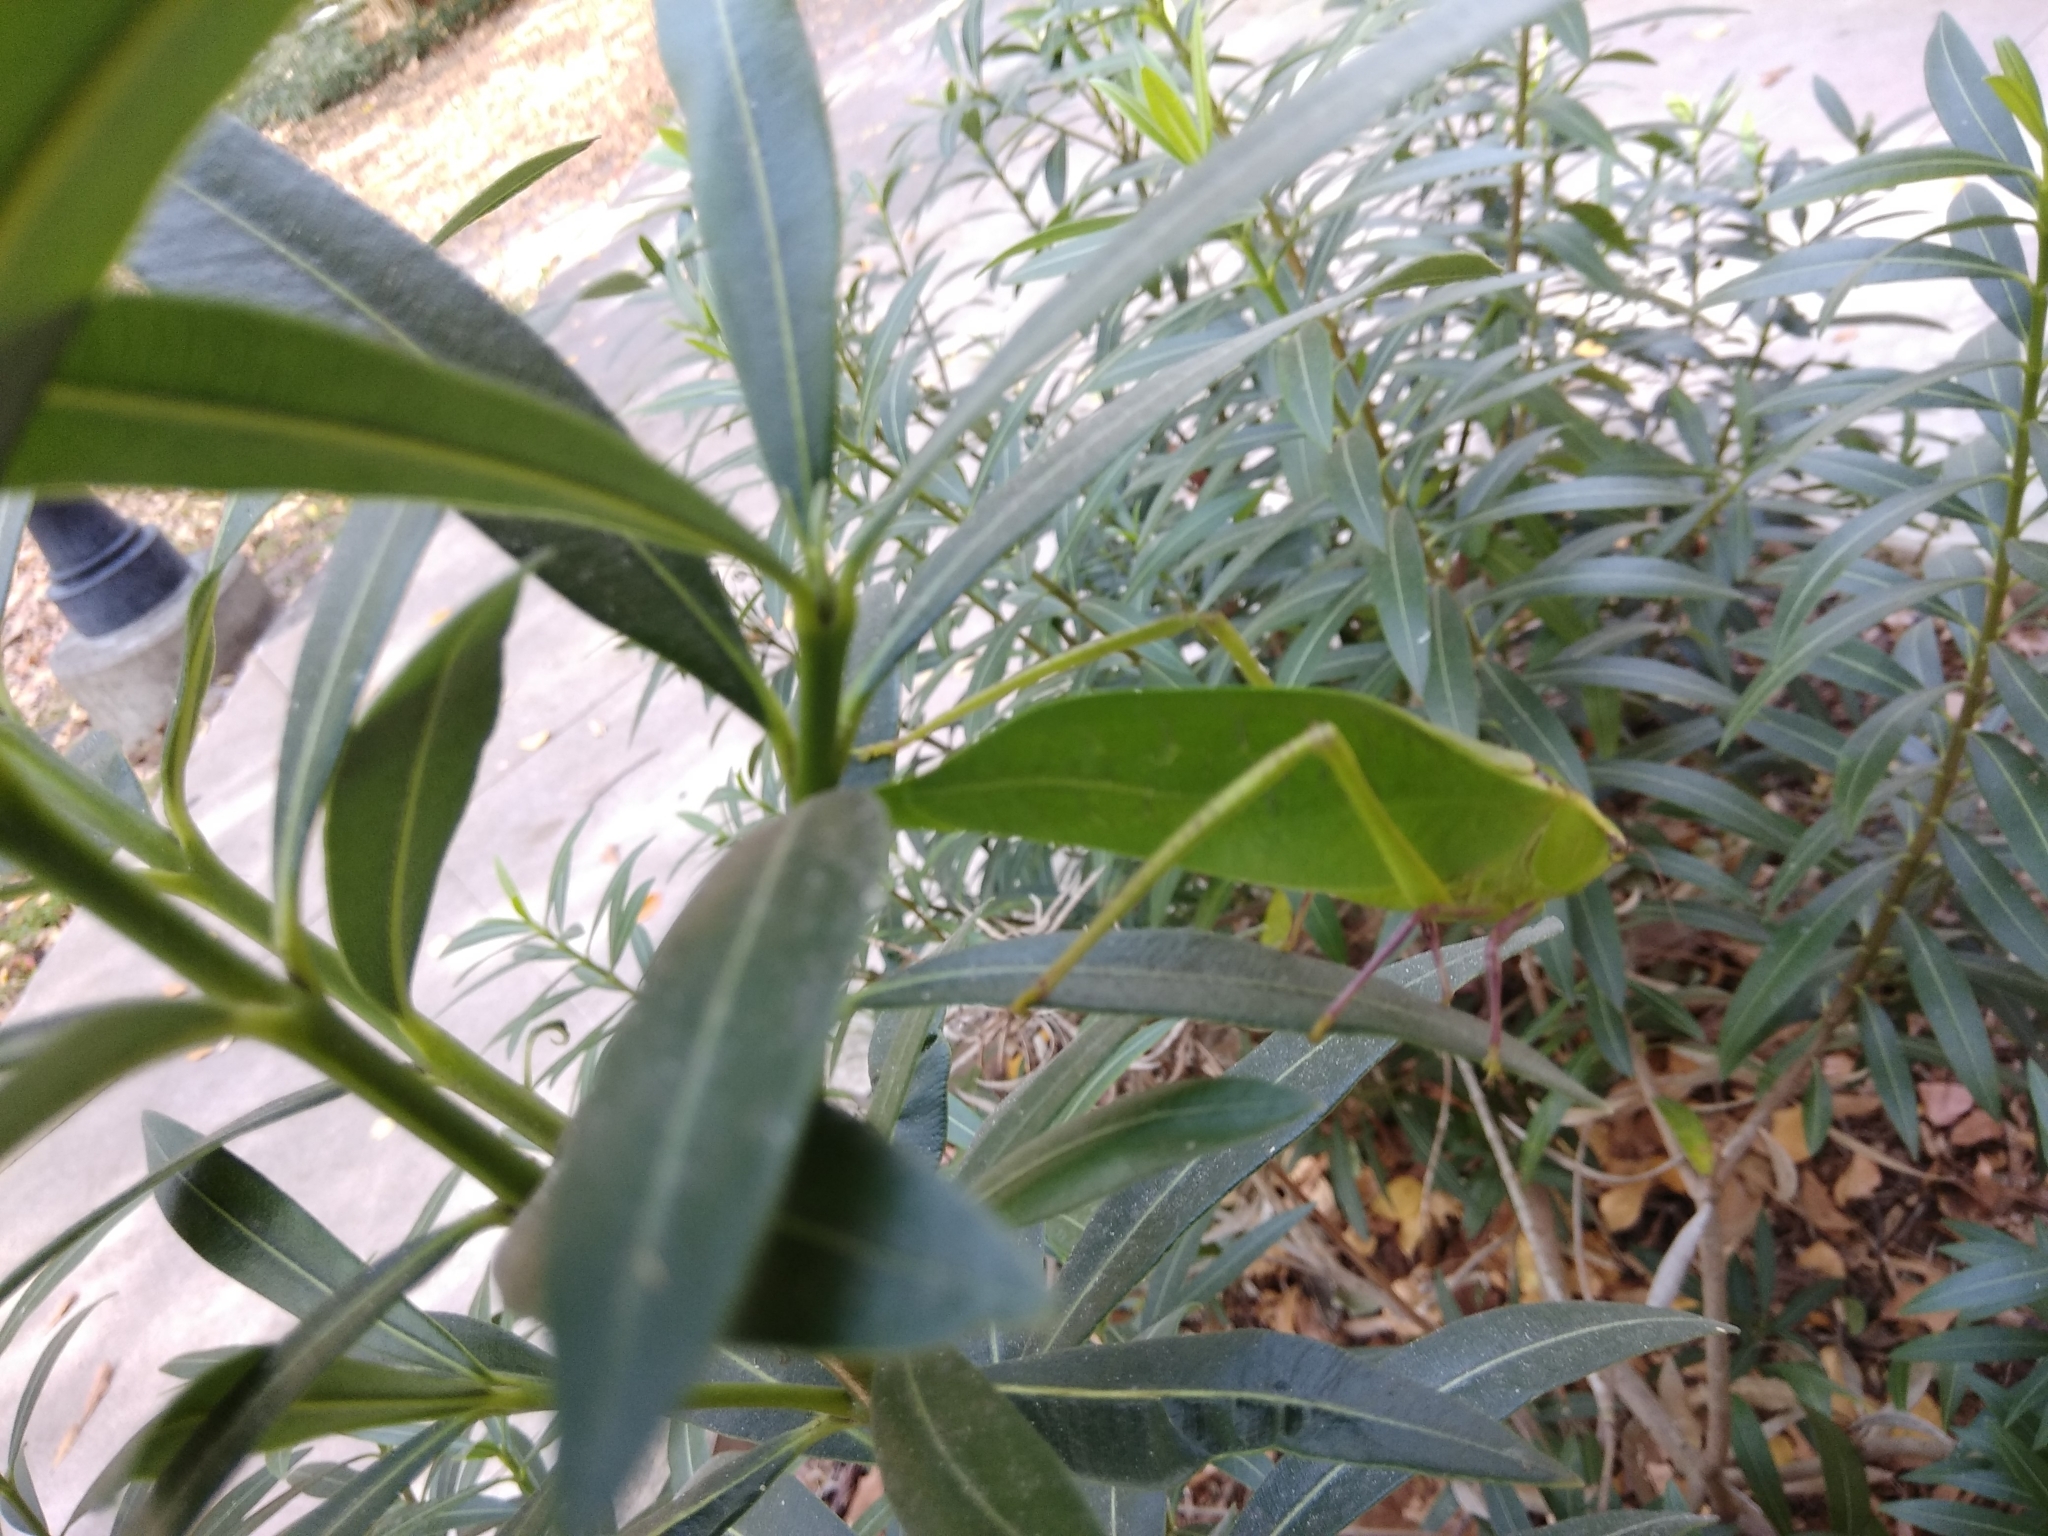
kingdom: Animalia
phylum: Arthropoda
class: Insecta
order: Orthoptera
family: Tettigoniidae
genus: Stilpnochlora
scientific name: Stilpnochlora couloniana
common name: Giant katydid
